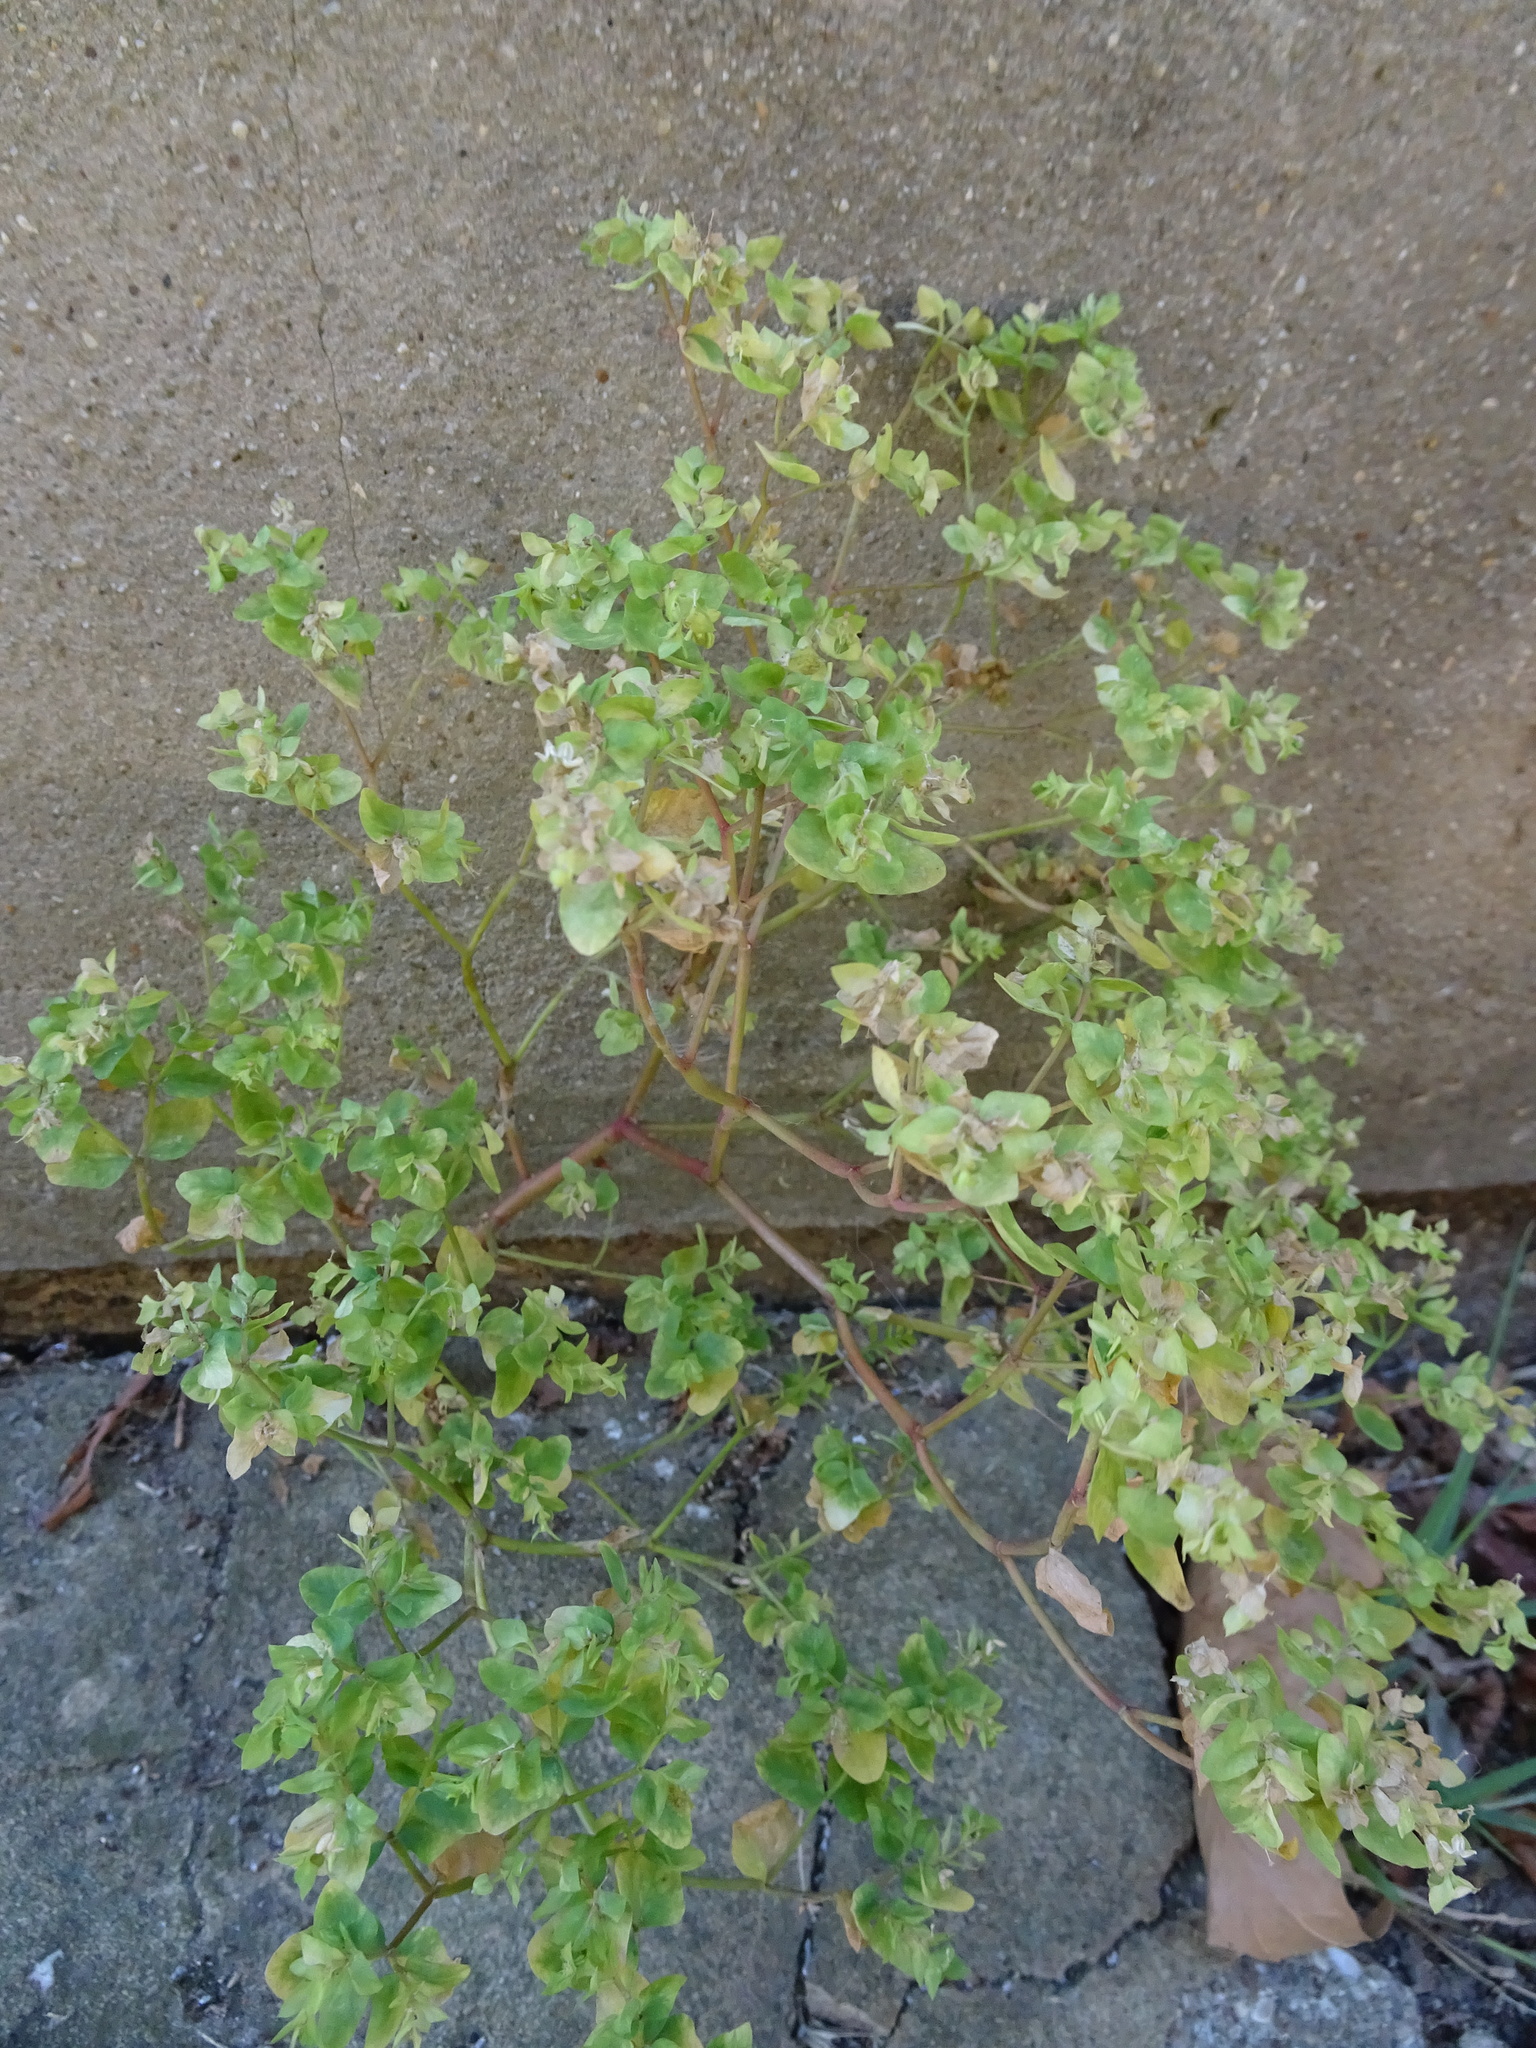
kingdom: Plantae
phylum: Tracheophyta
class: Magnoliopsida
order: Malpighiales
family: Euphorbiaceae
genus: Euphorbia
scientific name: Euphorbia peplus
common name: Petty spurge
